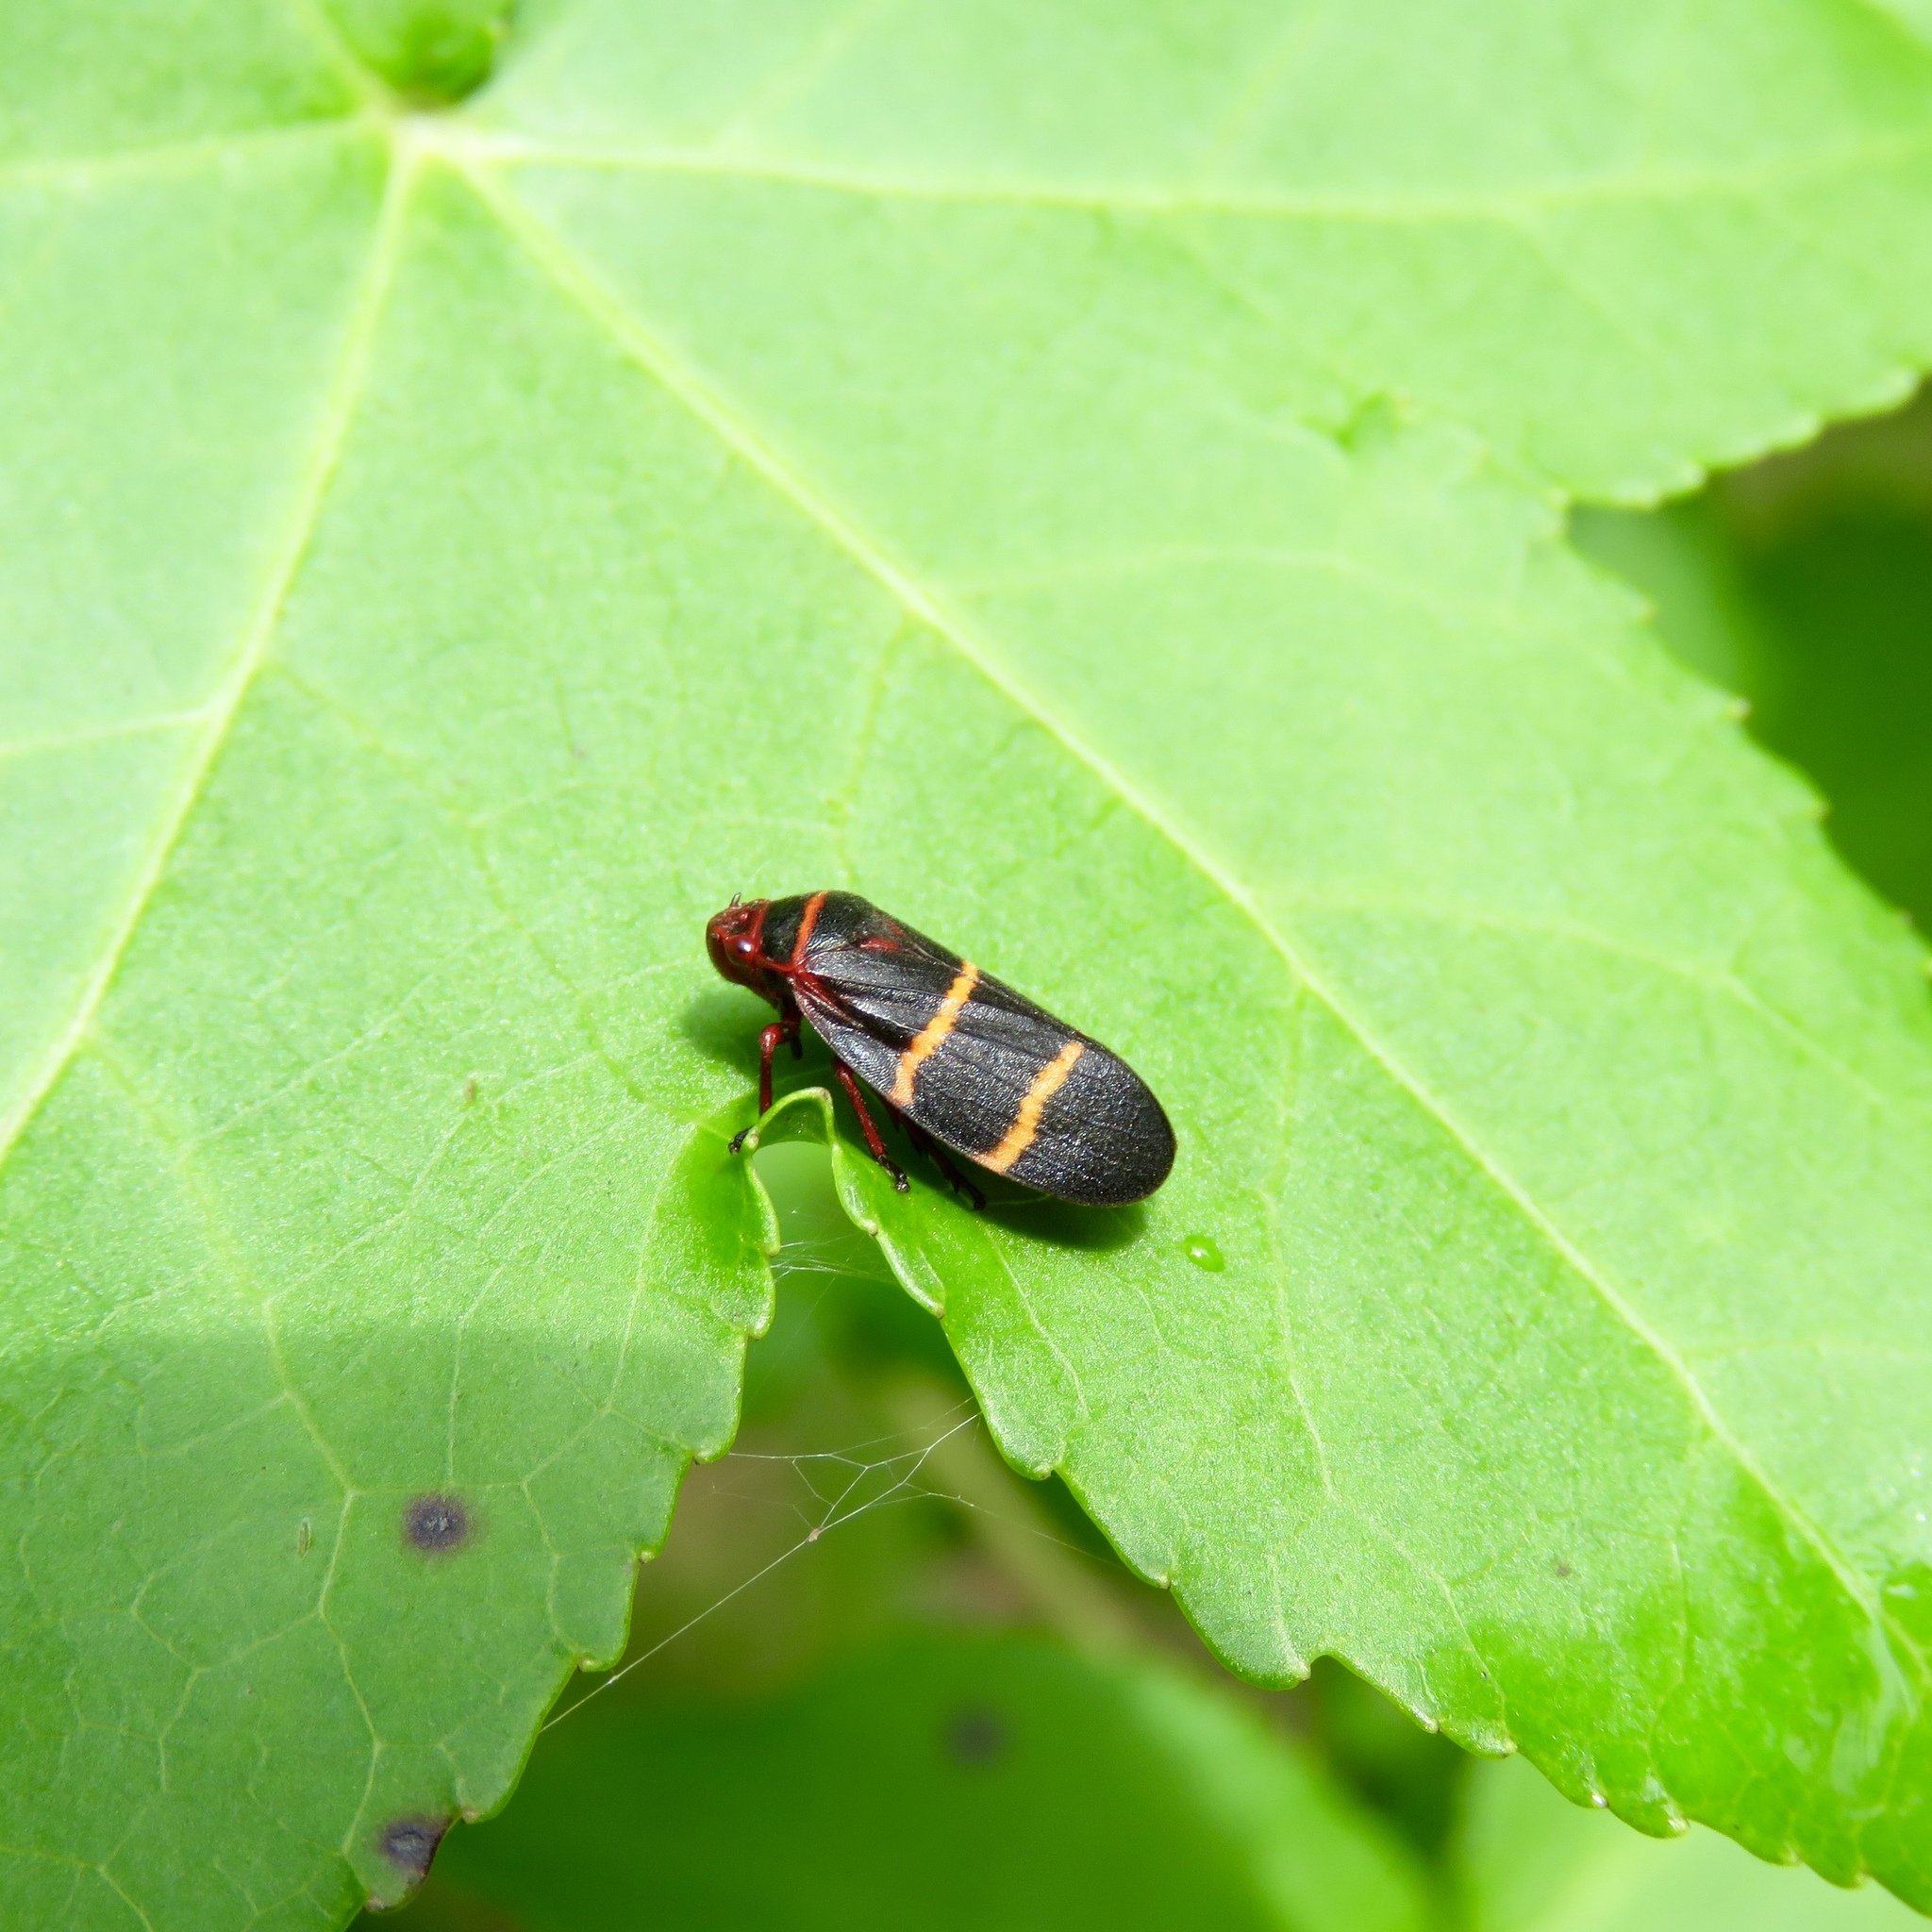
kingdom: Animalia
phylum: Arthropoda
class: Insecta
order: Hemiptera
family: Cercopidae
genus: Prosapia
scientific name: Prosapia bicincta
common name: Twolined spittlebug
